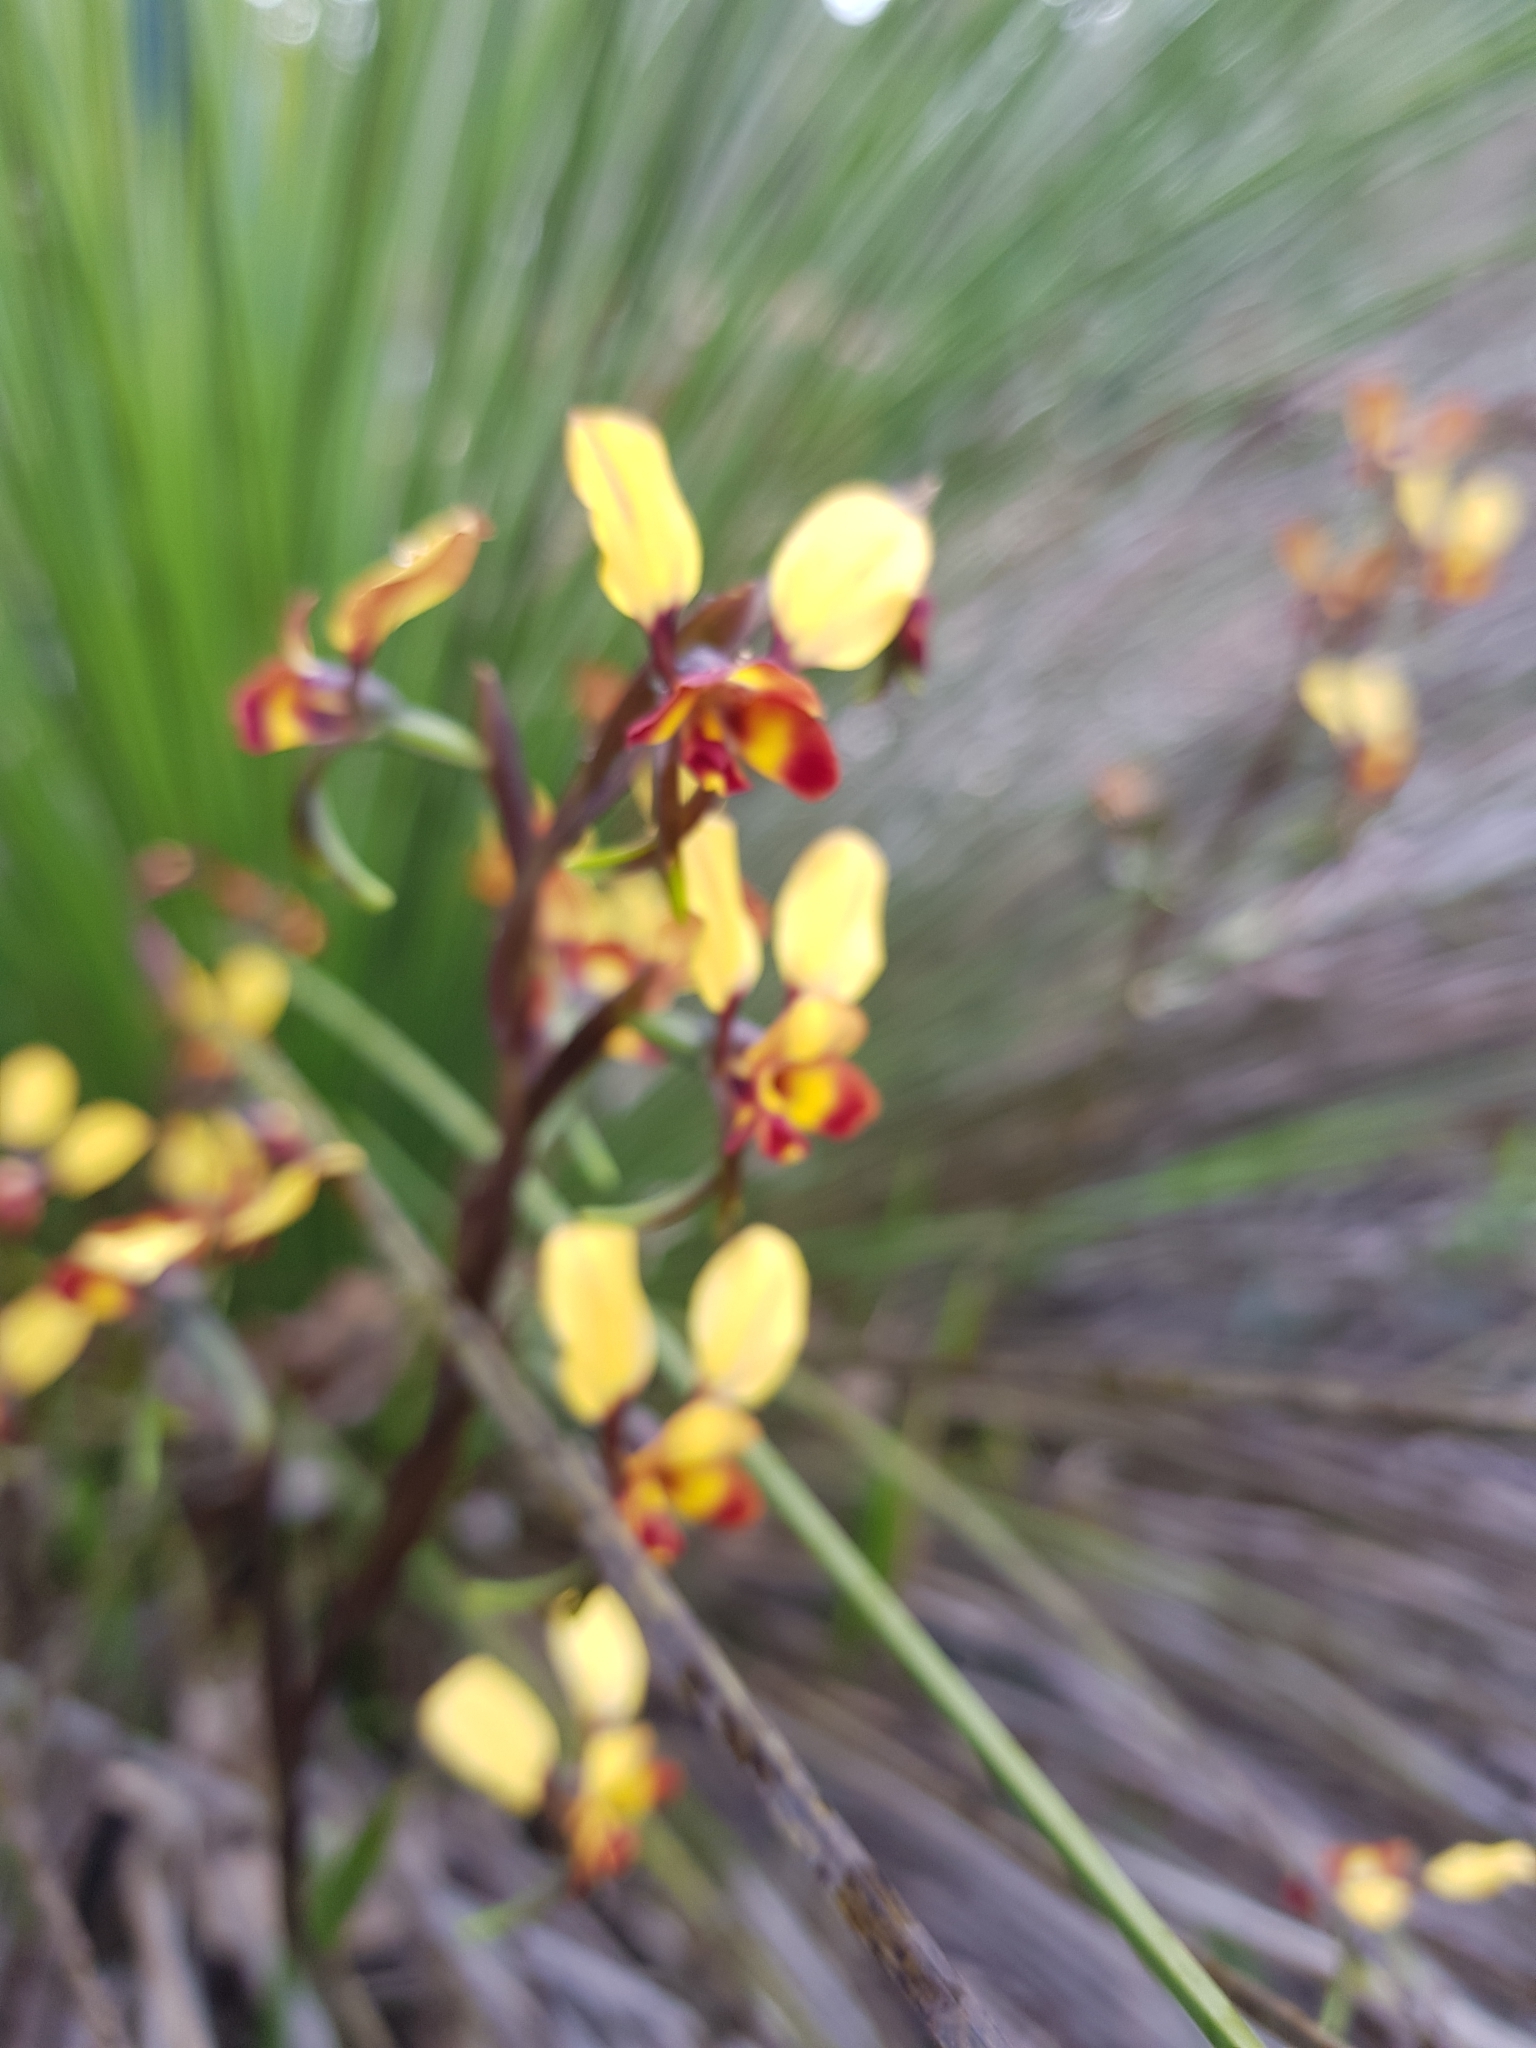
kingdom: Plantae
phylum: Tracheophyta
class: Liliopsida
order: Asparagales
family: Orchidaceae
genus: Diuris
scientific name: Diuris corymbosa
